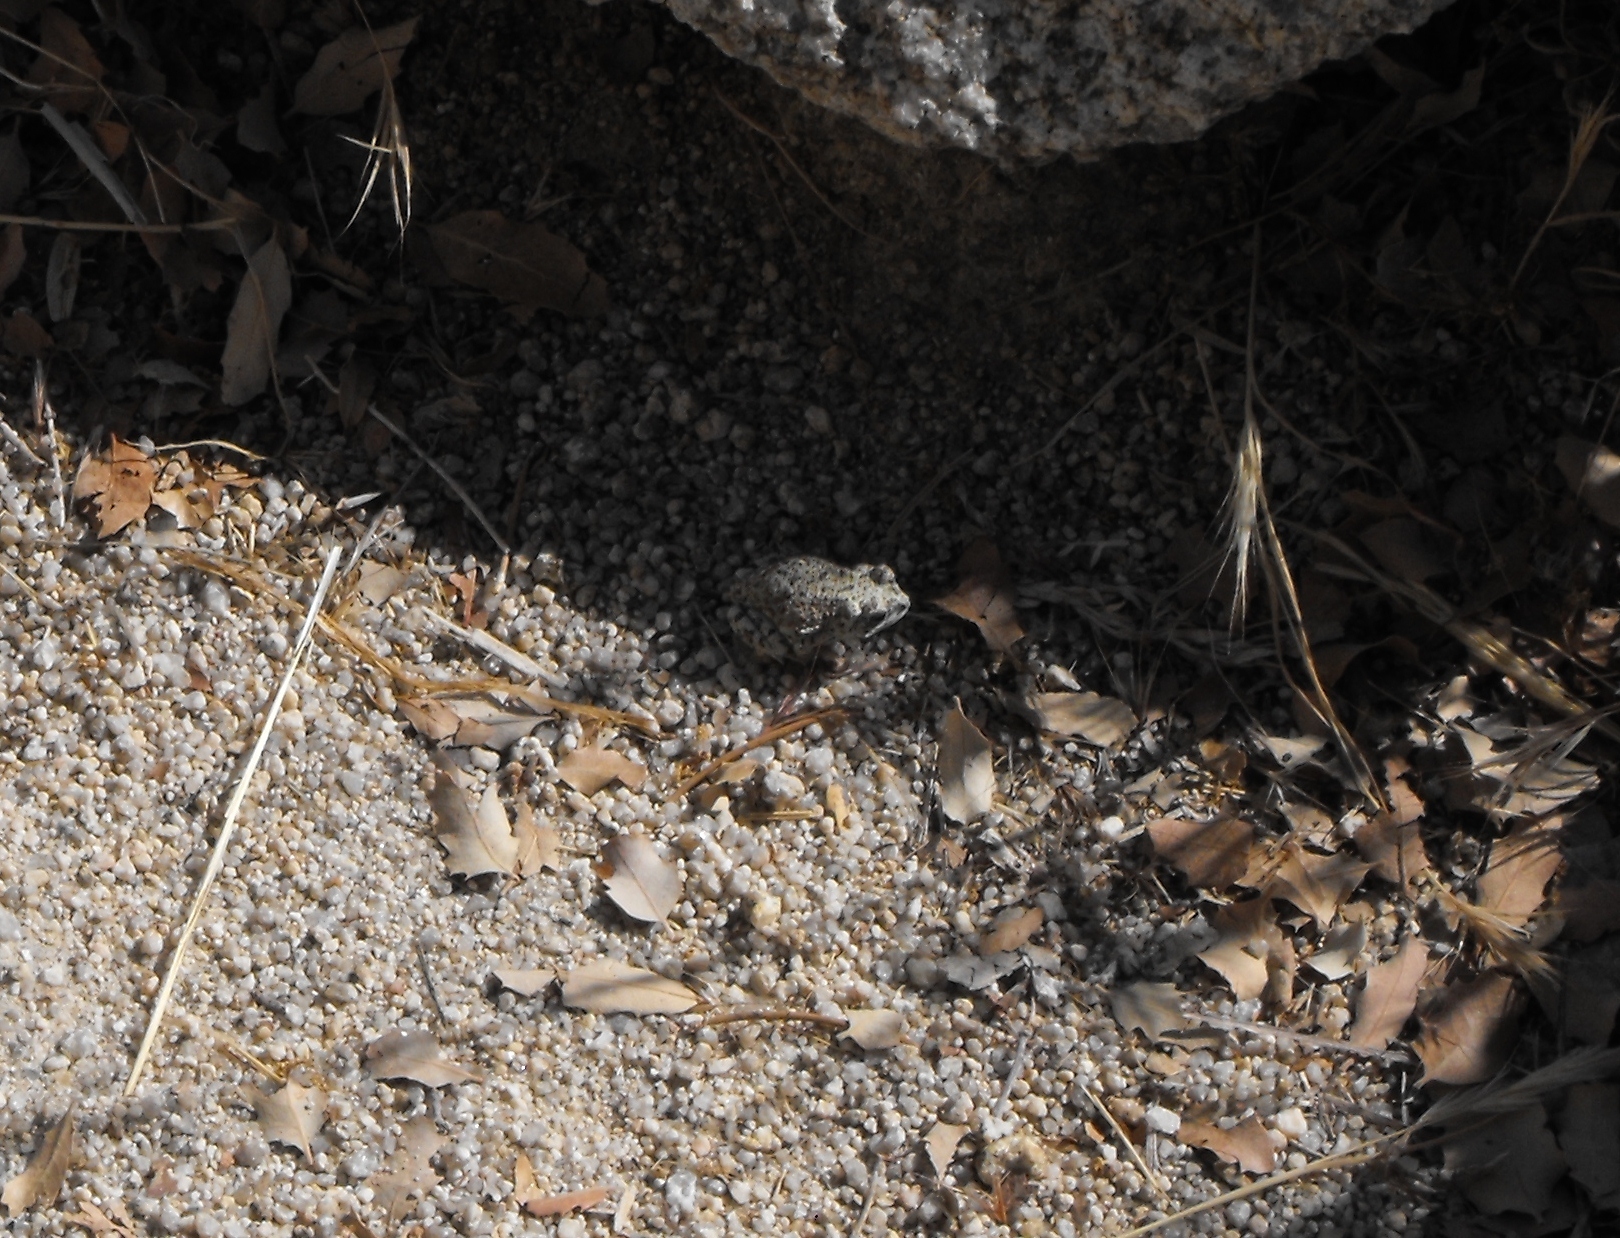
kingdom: Animalia
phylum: Chordata
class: Amphibia
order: Anura
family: Bufonidae
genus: Anaxyrus
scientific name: Anaxyrus punctatus
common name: Red-spotted toad
